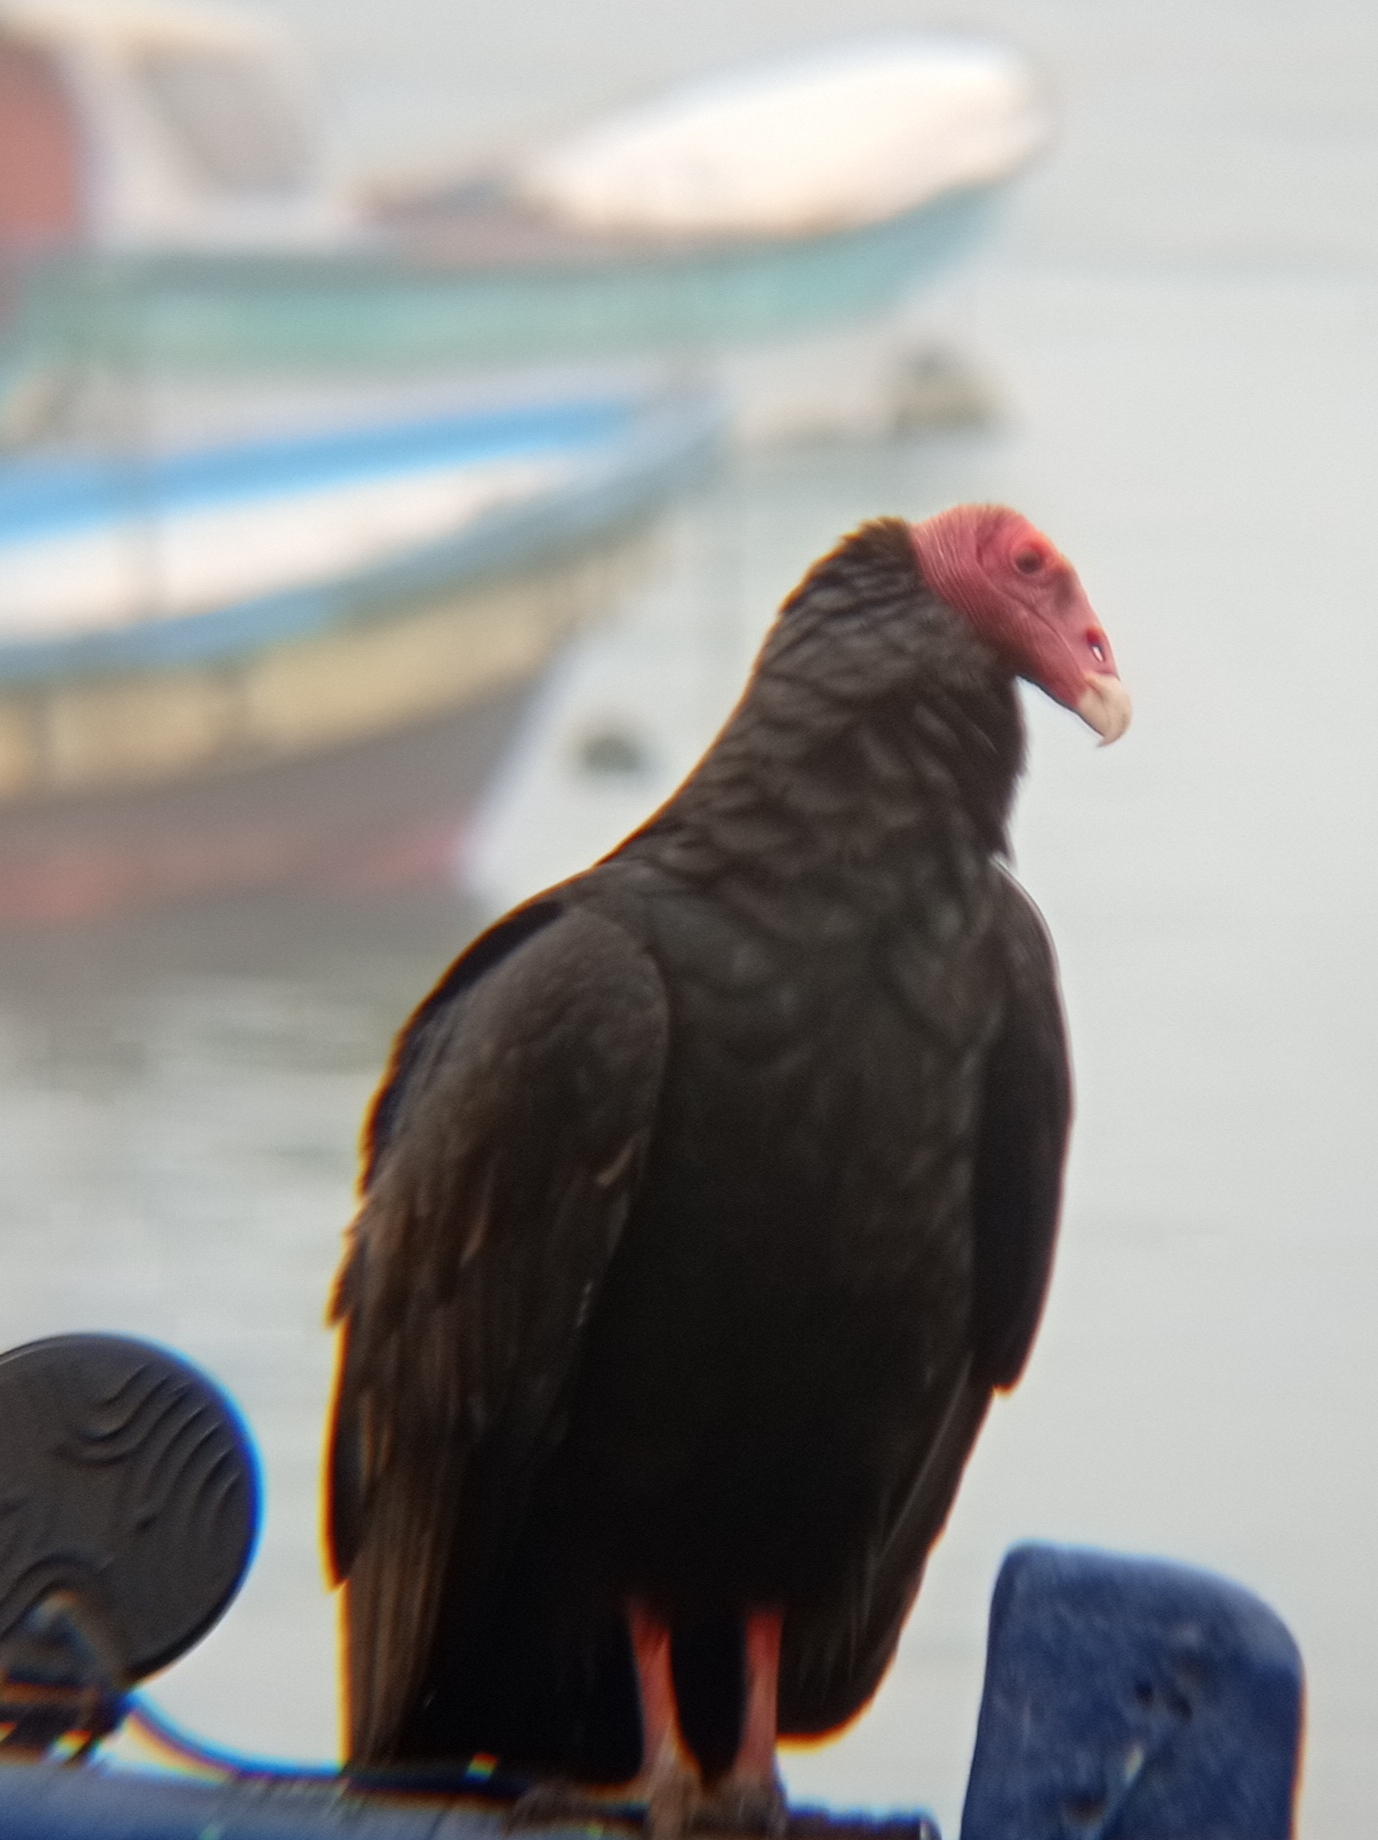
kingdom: Animalia
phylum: Chordata
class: Aves
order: Accipitriformes
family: Cathartidae
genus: Cathartes
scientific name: Cathartes aura
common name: Turkey vulture
